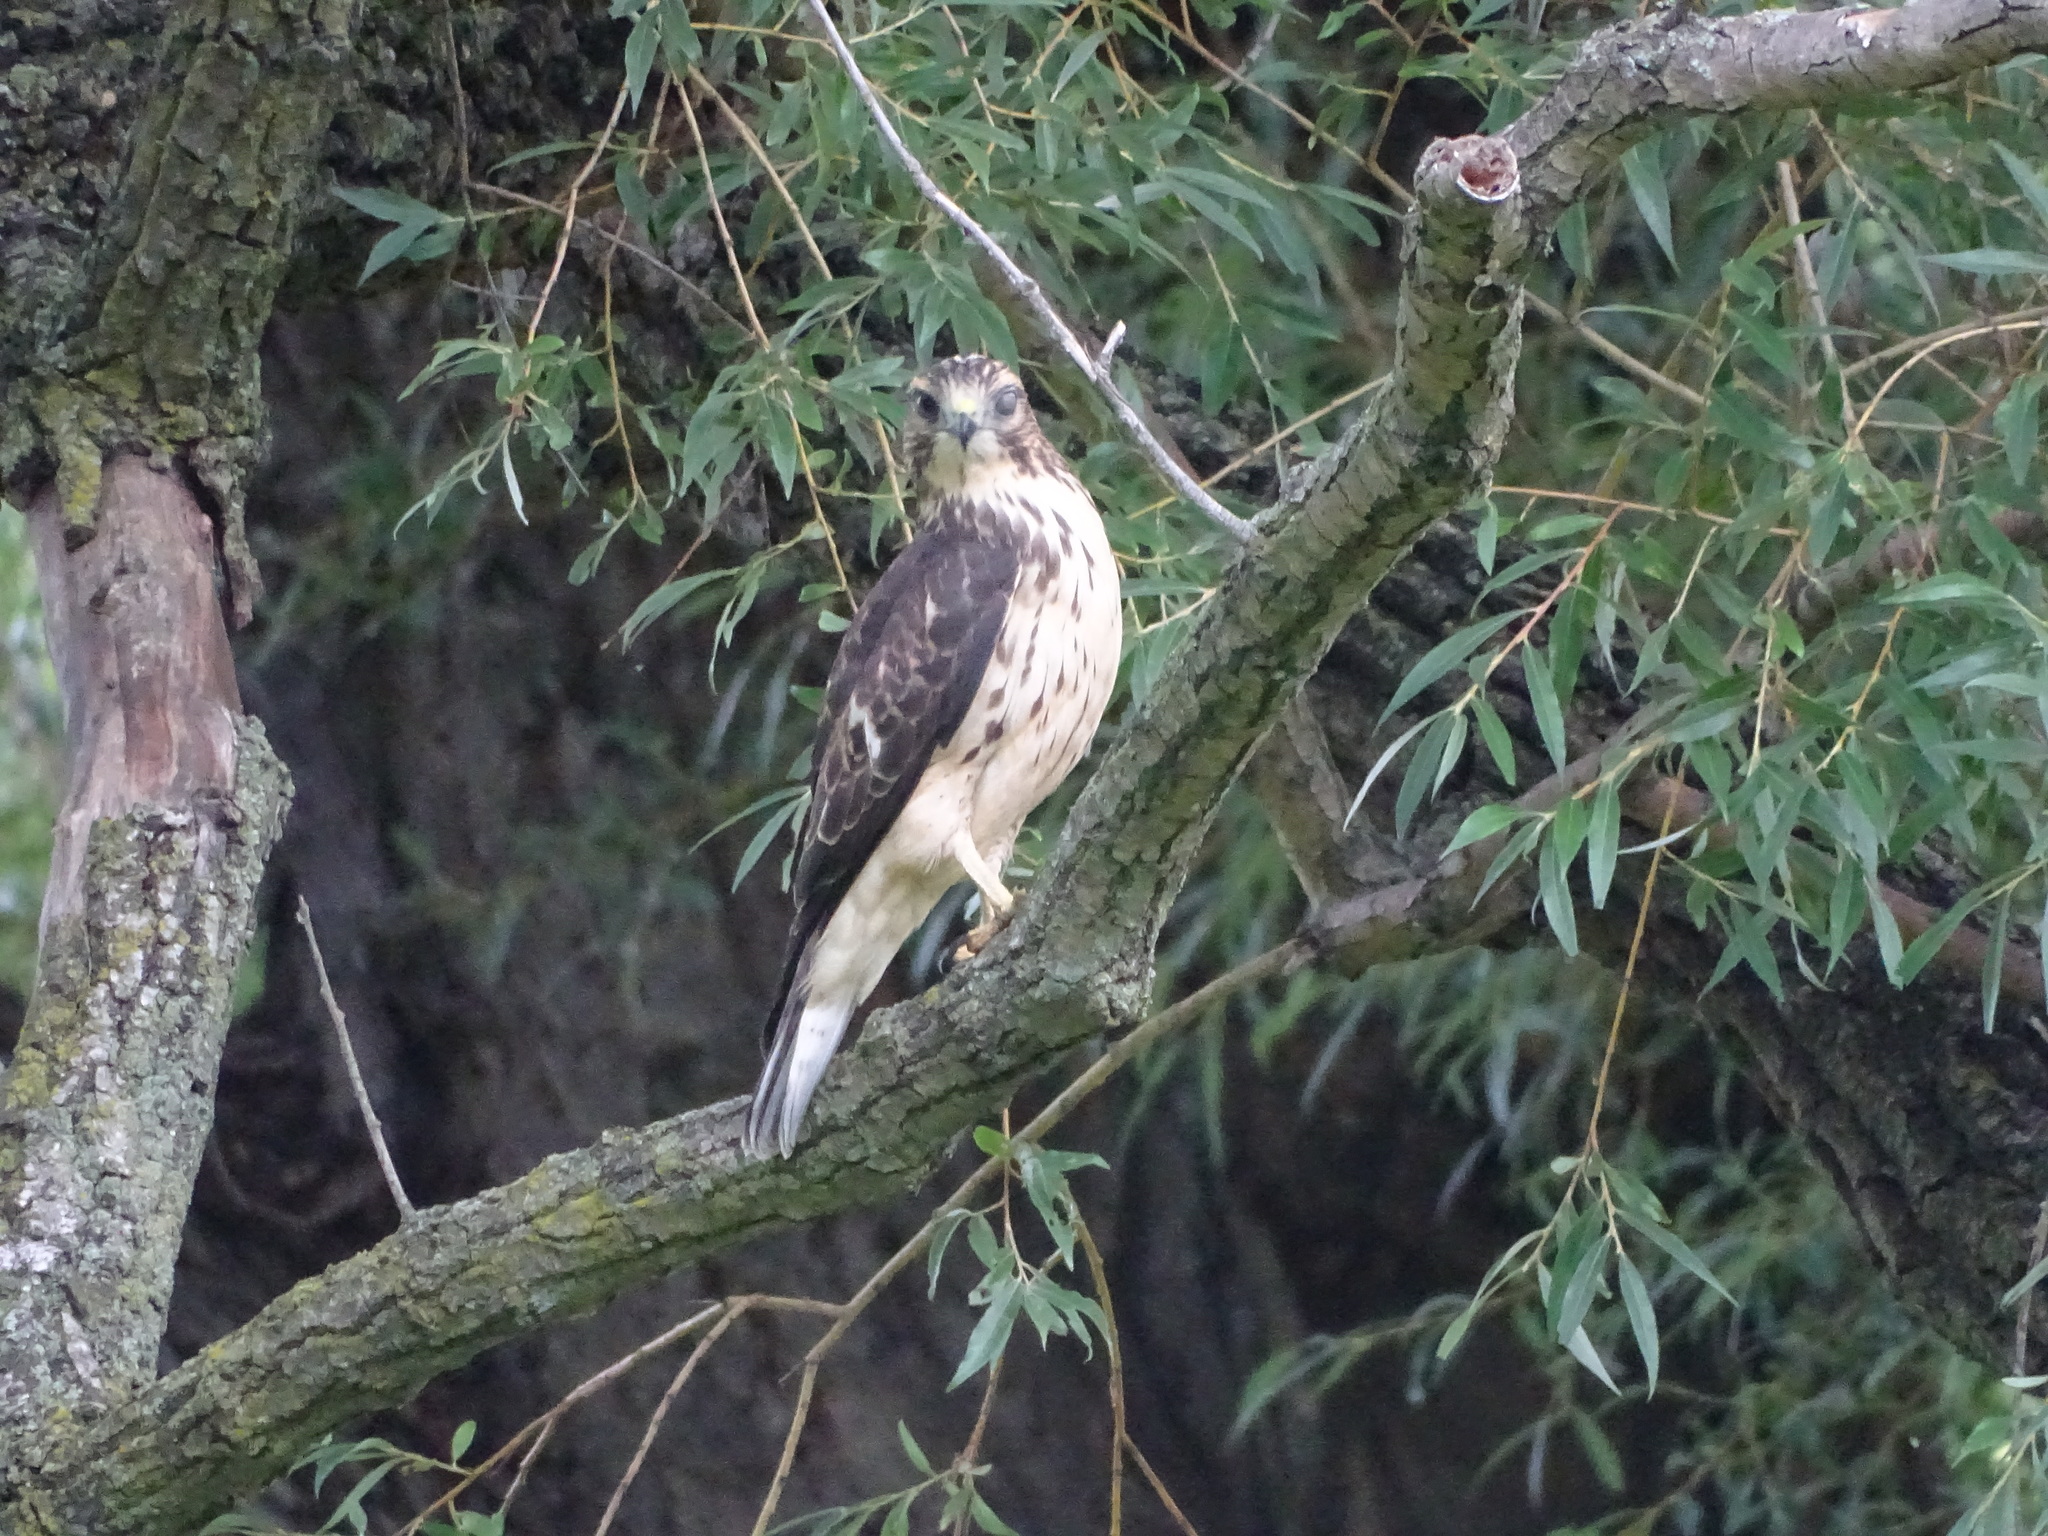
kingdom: Animalia
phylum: Chordata
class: Aves
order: Accipitriformes
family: Accipitridae
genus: Buteo
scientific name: Buteo platypterus
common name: Broad-winged hawk
